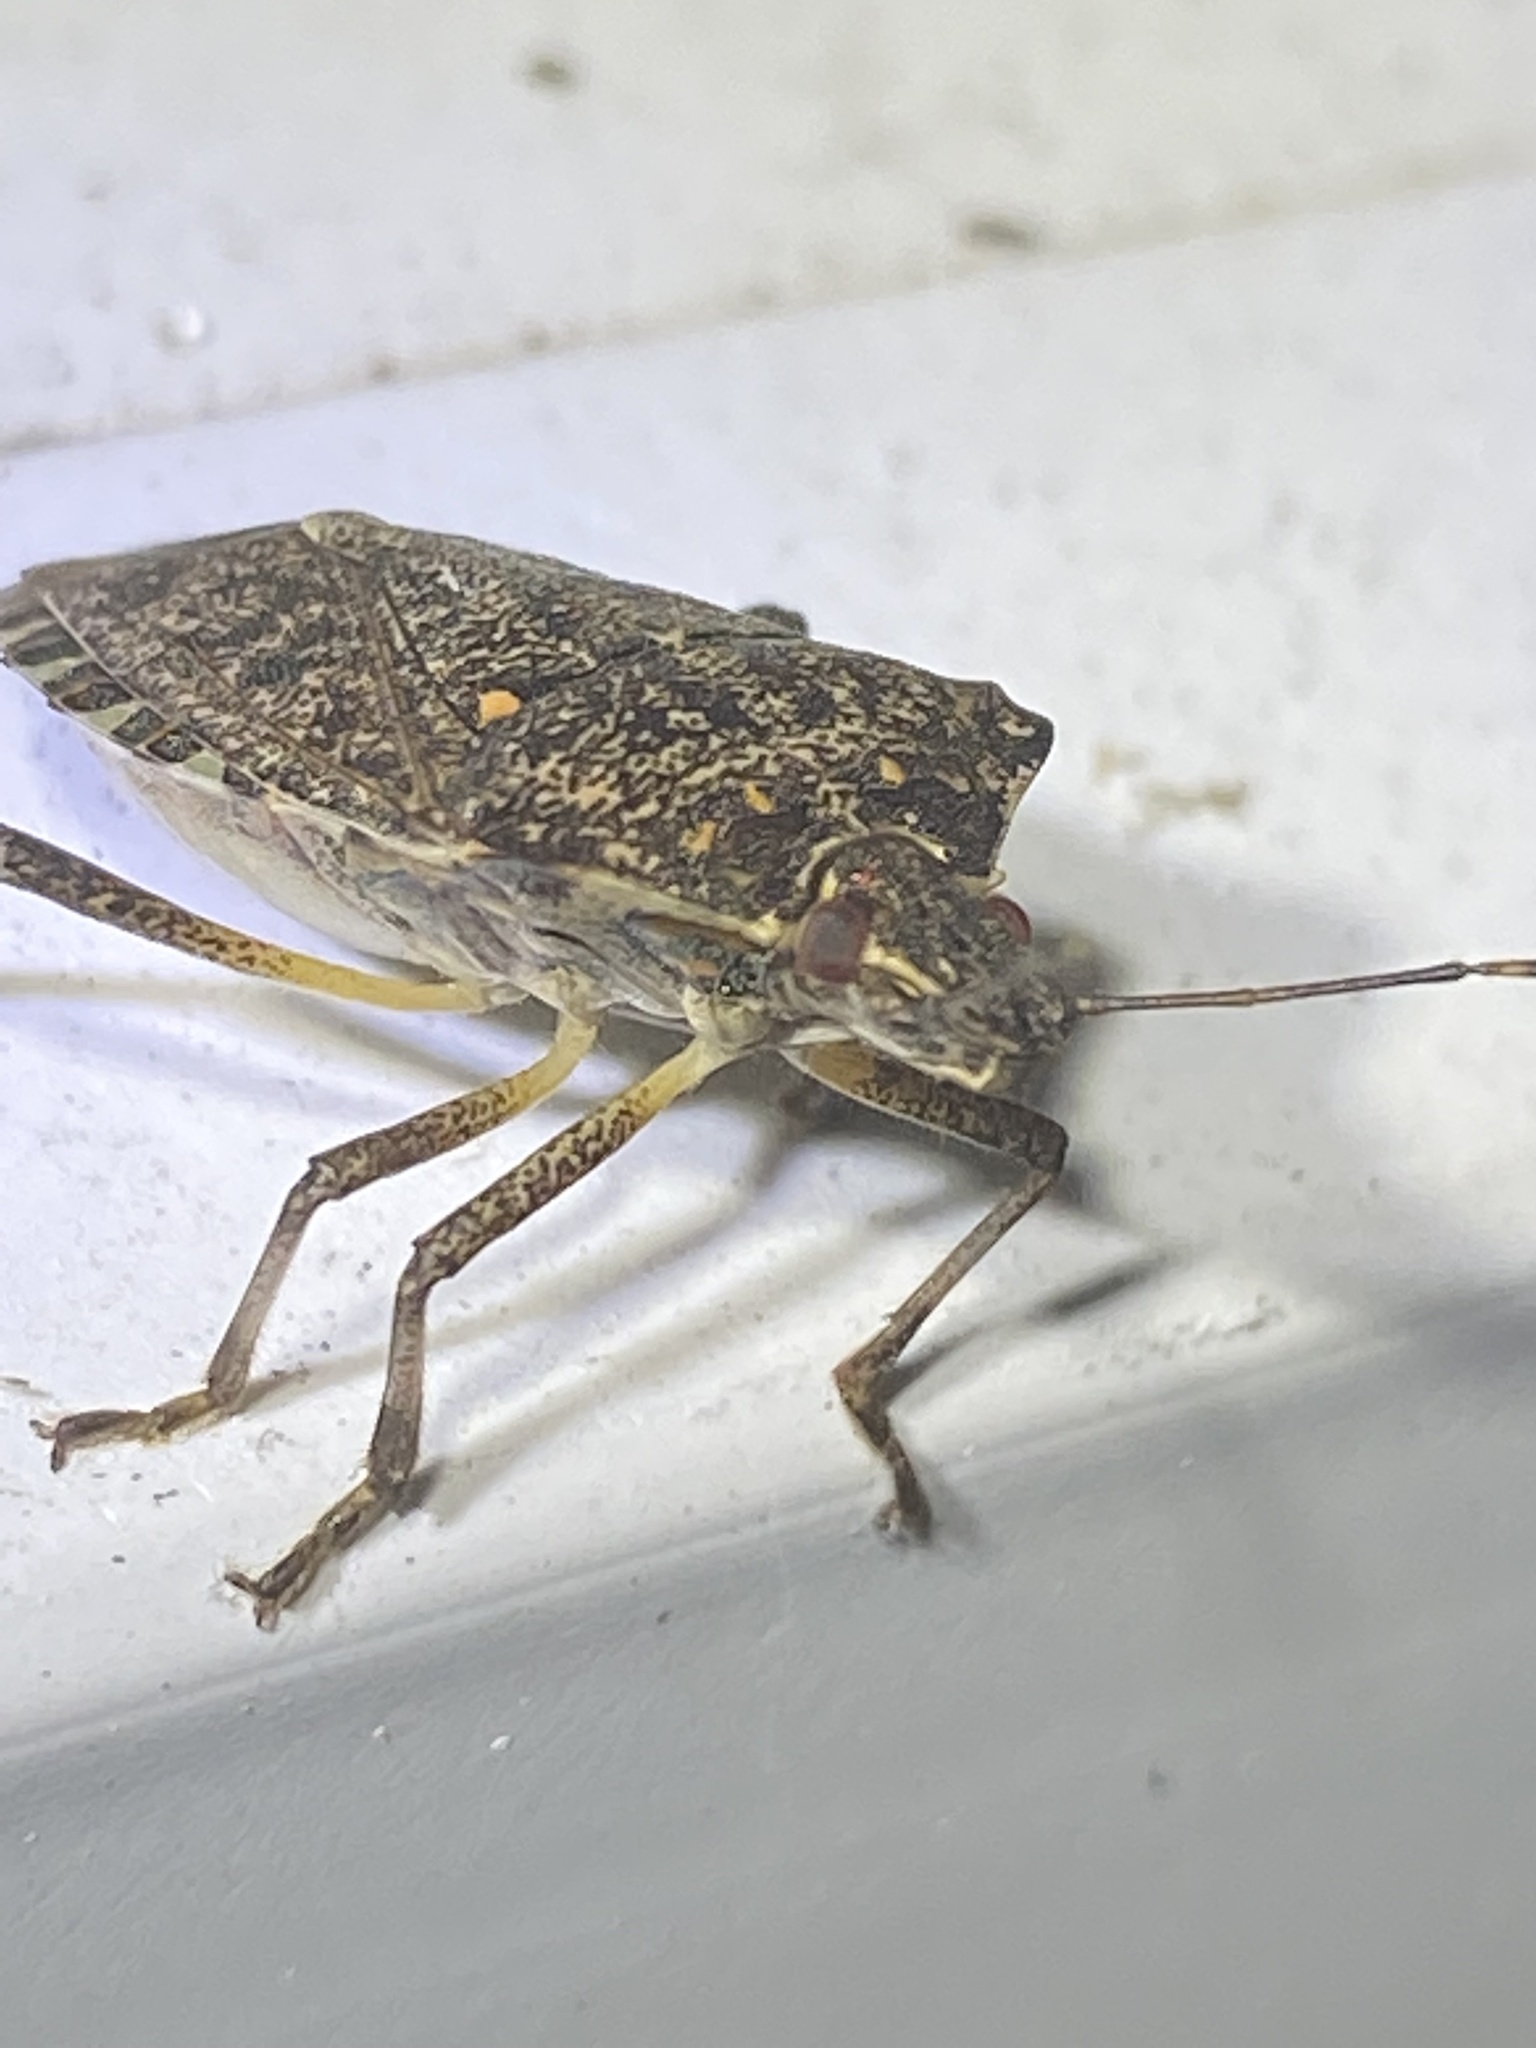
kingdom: Animalia
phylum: Arthropoda
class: Insecta
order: Hemiptera
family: Pentatomidae
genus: Halyomorpha
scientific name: Halyomorpha halys
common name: Brown marmorated stink bug
